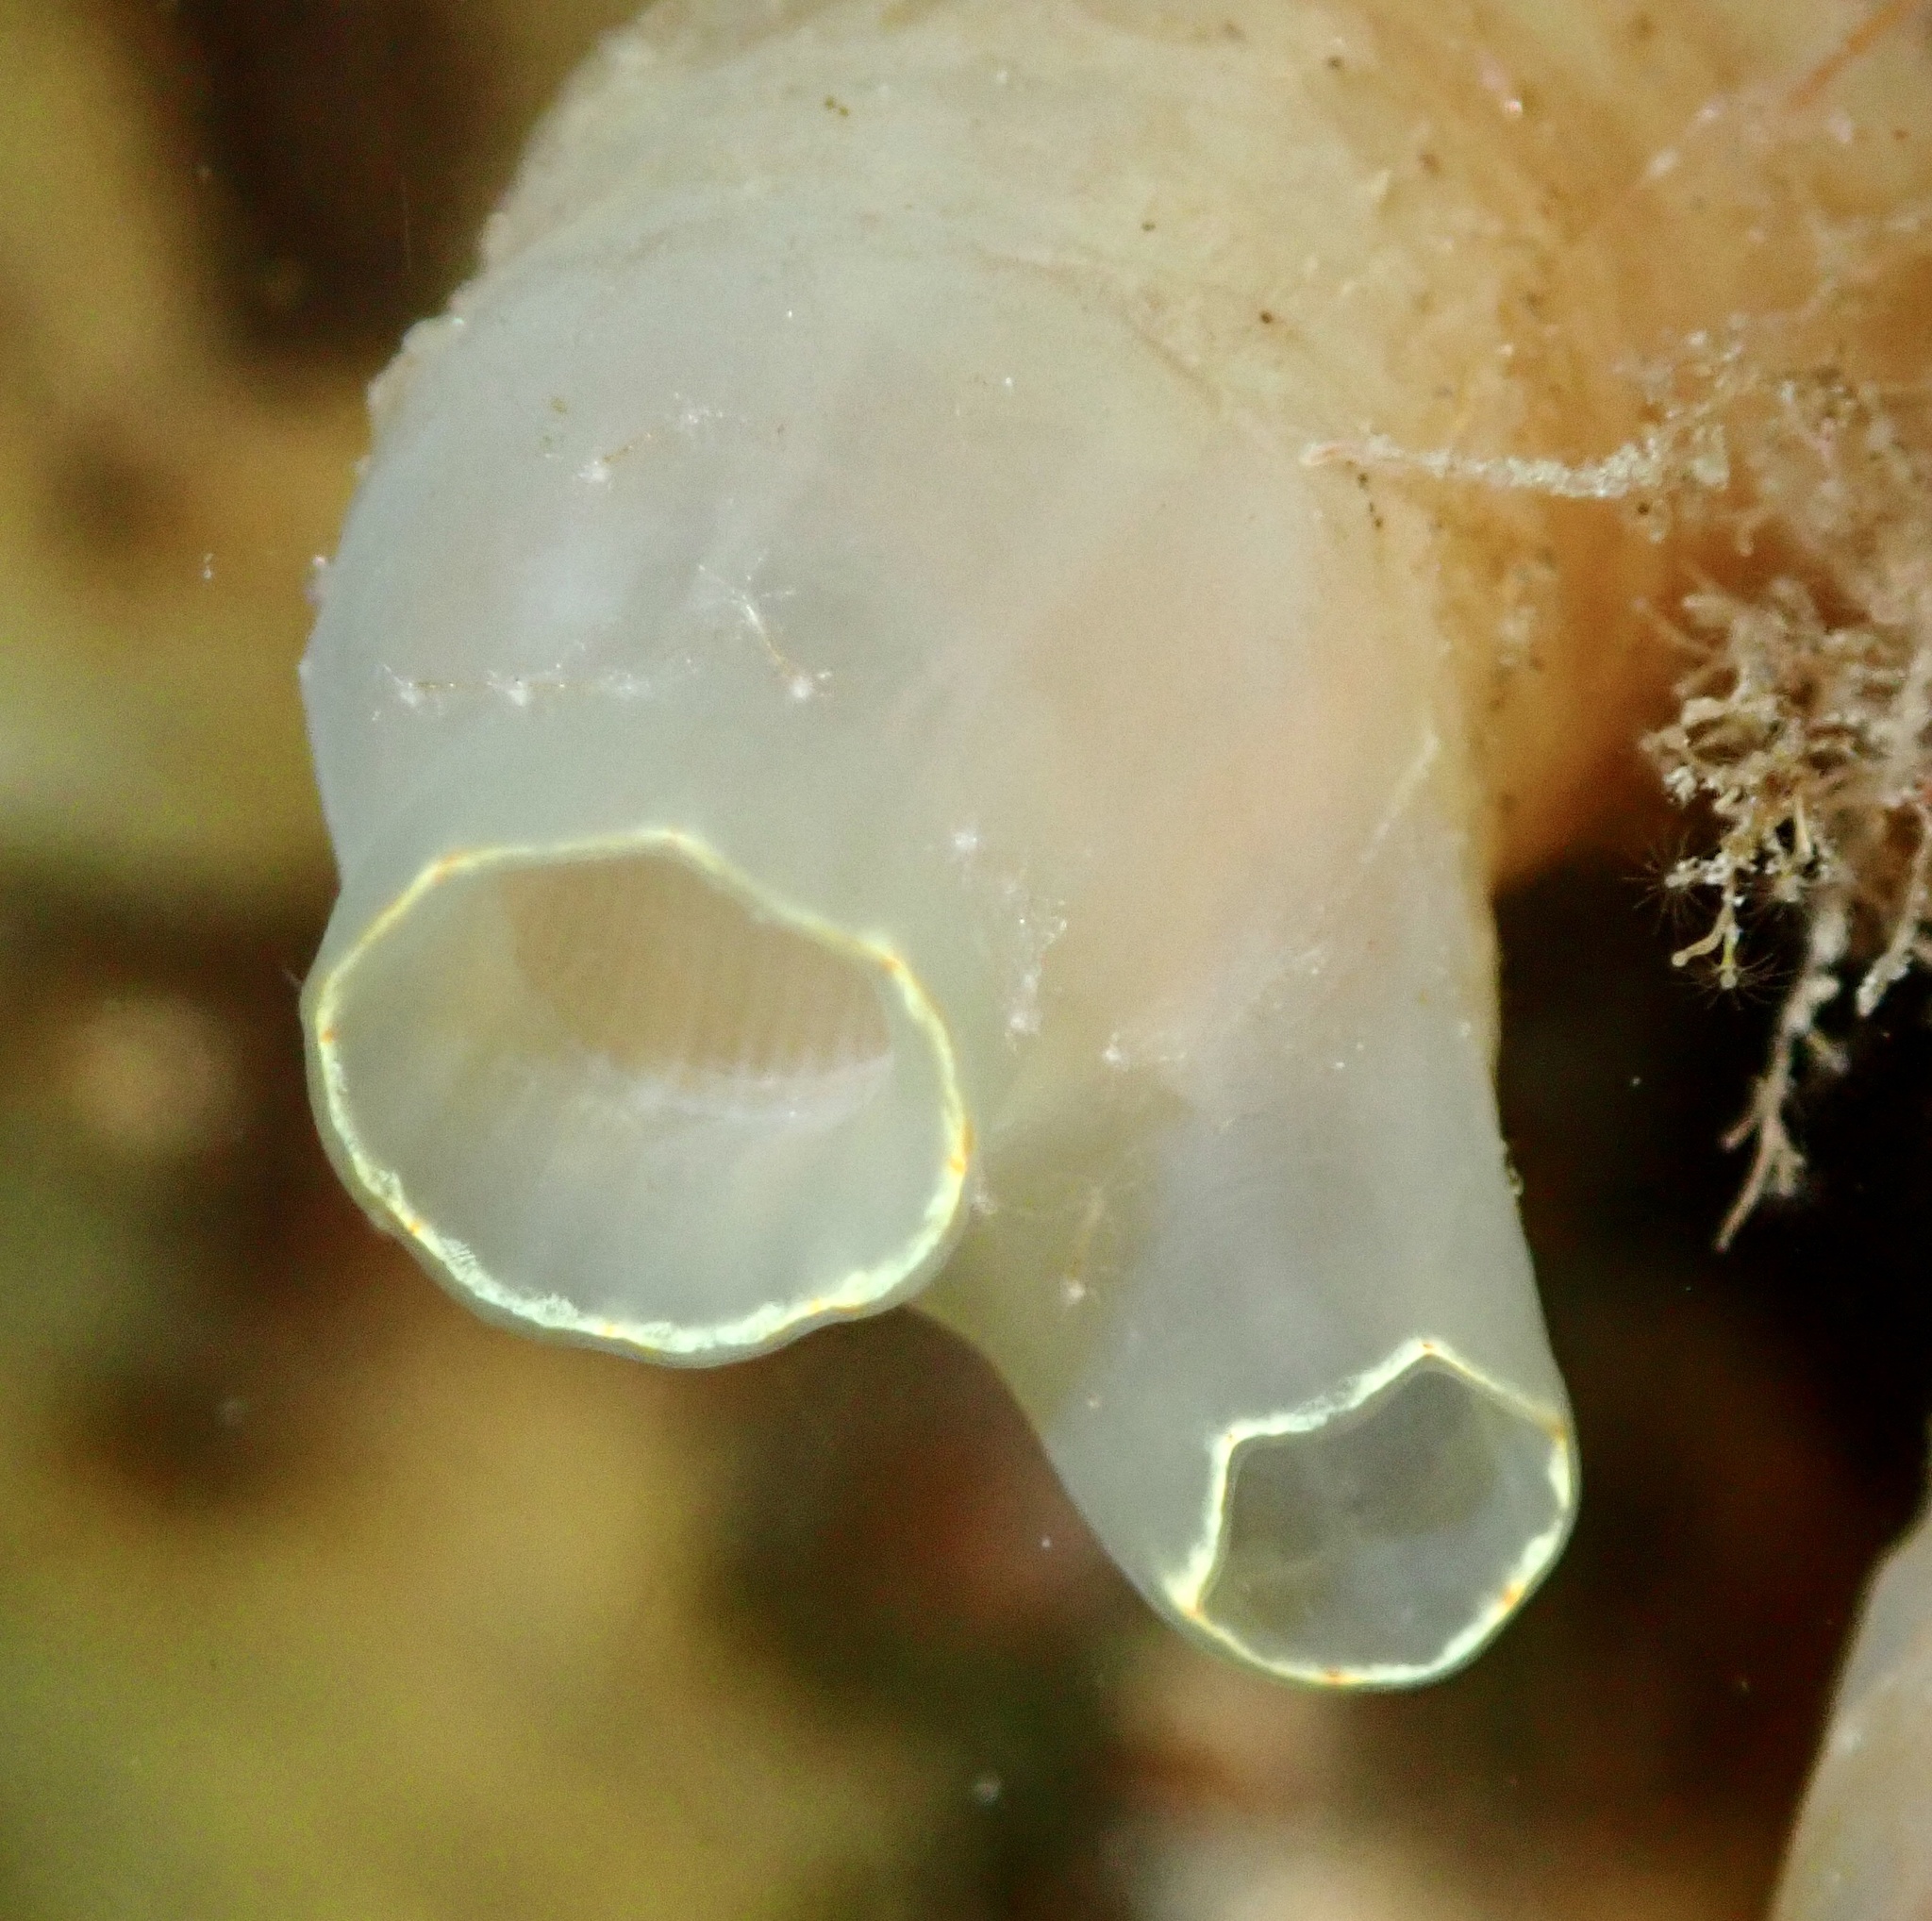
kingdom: Animalia
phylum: Chordata
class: Ascidiacea
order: Phlebobranchia
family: Cionidae
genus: Ciona
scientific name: Ciona intestinalis
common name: Vase tunicate
